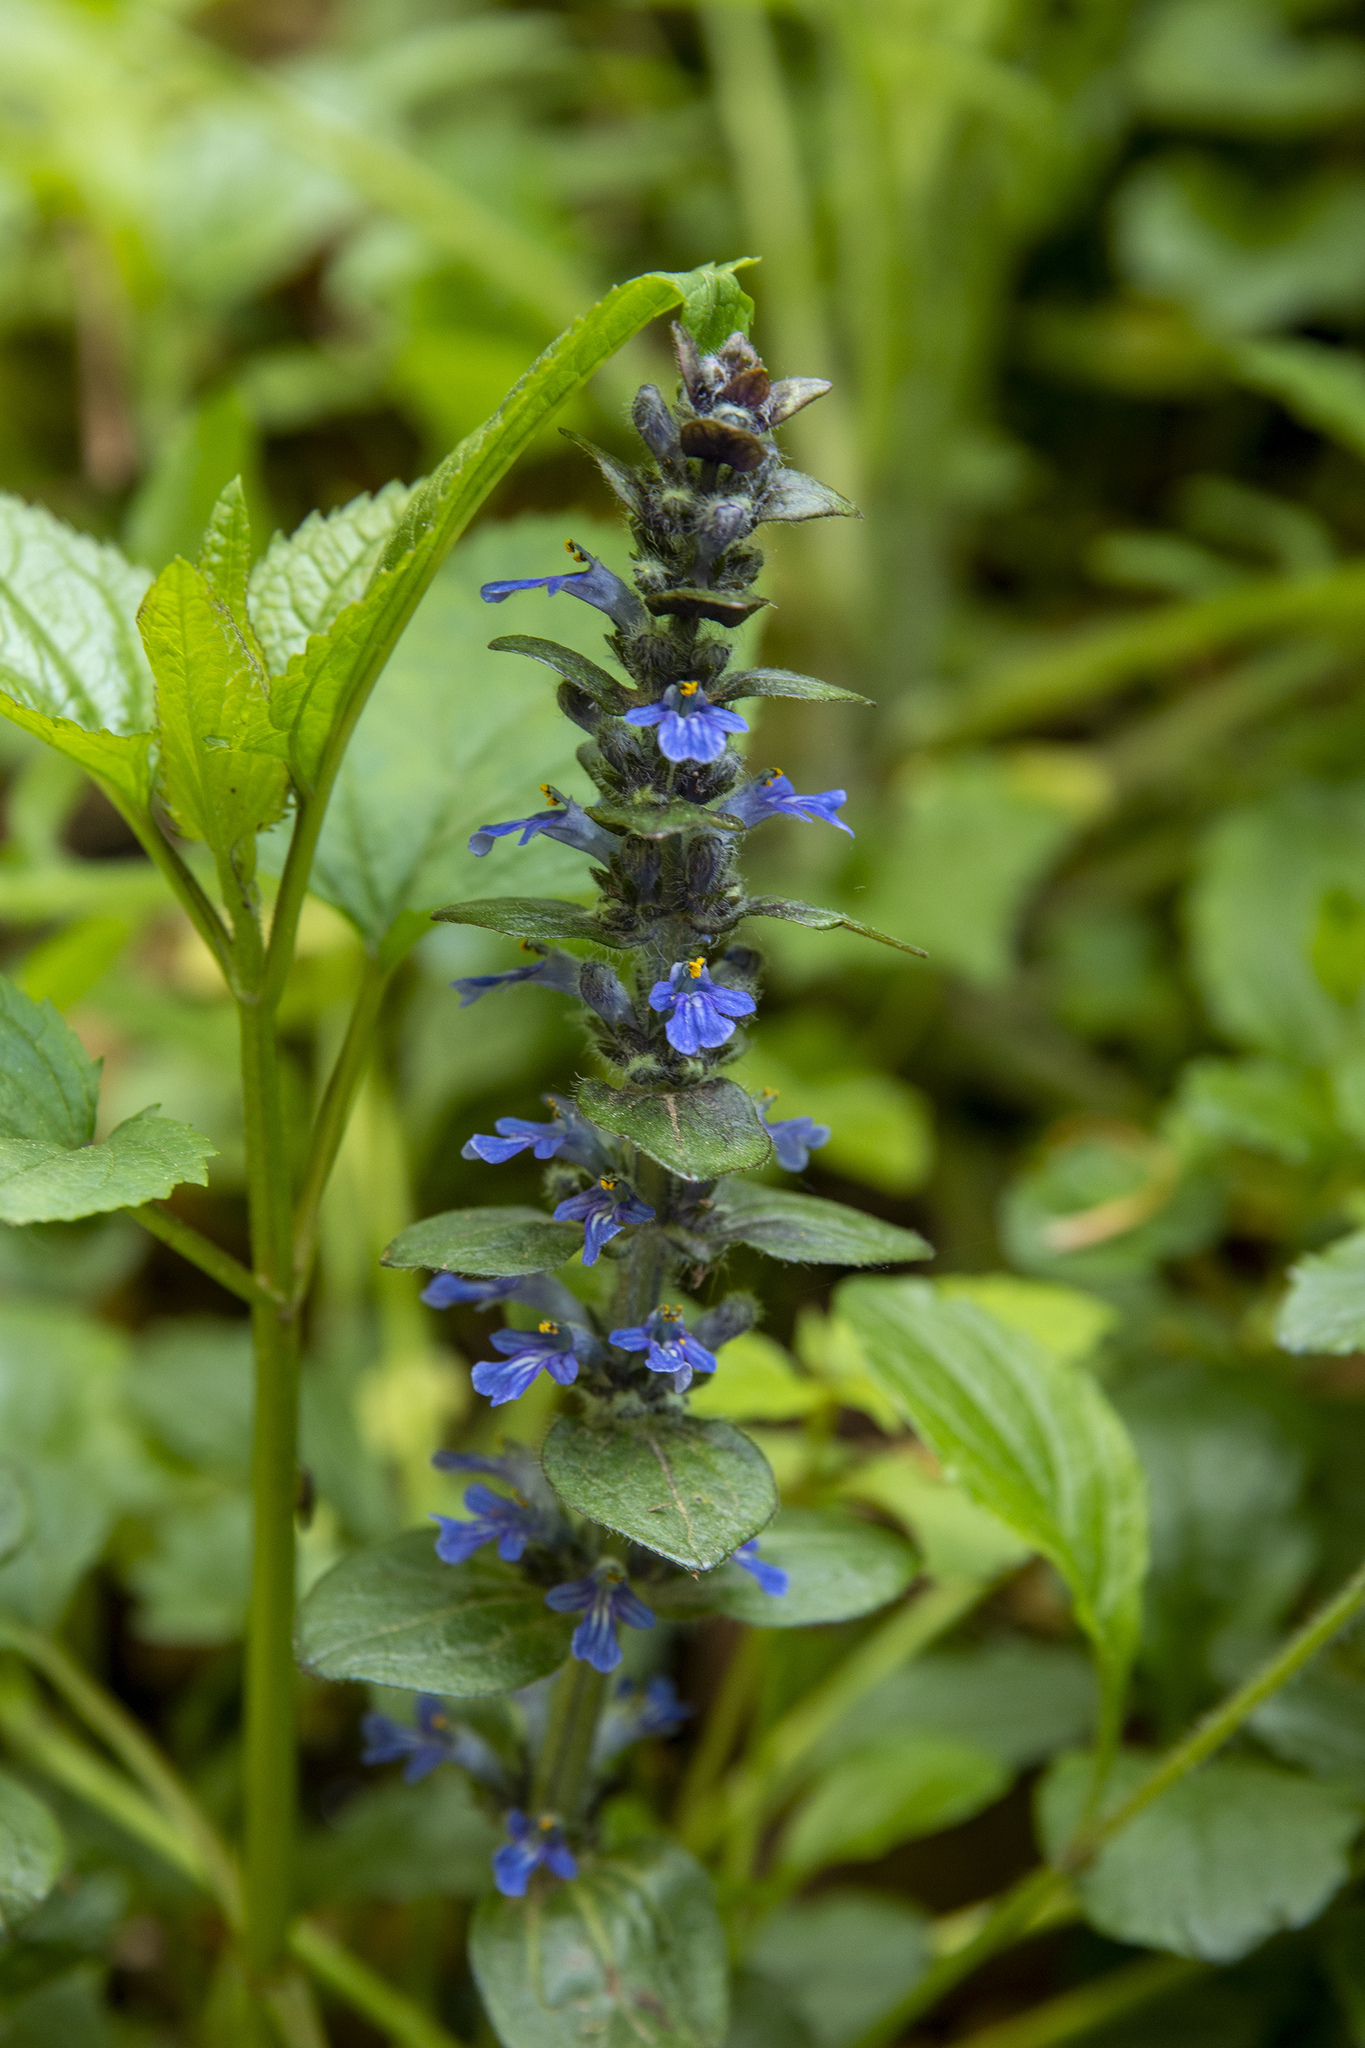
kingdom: Plantae
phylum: Tracheophyta
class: Magnoliopsida
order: Lamiales
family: Lamiaceae
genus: Ajuga
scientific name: Ajuga reptans
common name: Bugle
